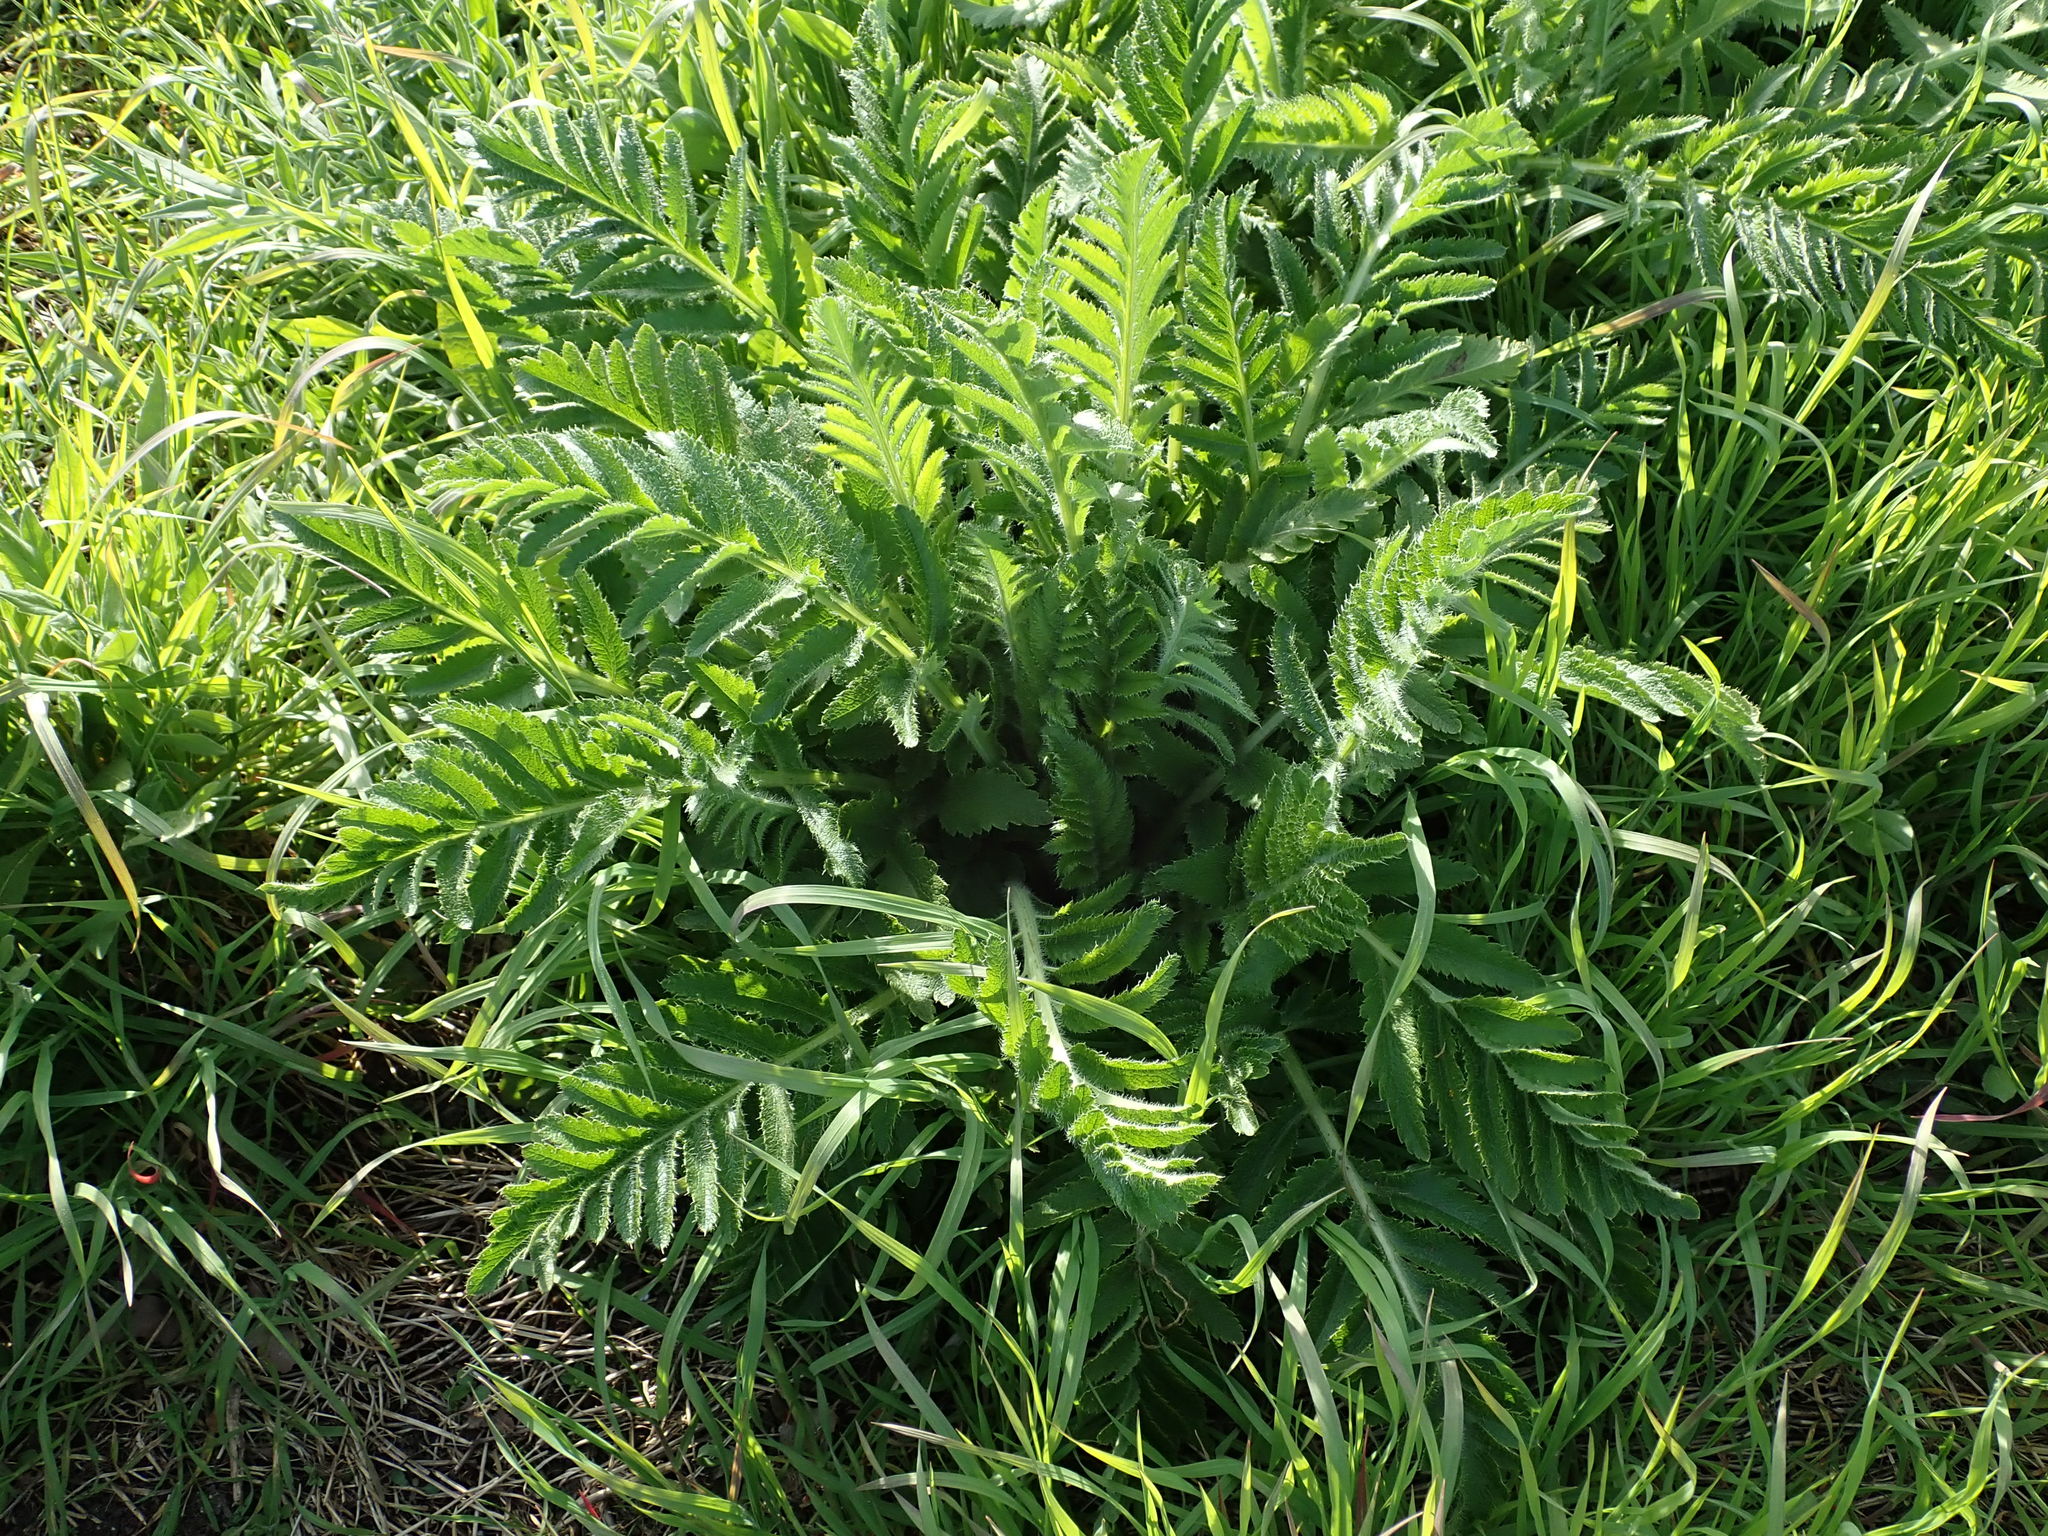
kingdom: Plantae
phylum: Tracheophyta
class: Magnoliopsida
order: Ranunculales
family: Papaveraceae
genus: Papaver
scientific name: Papaver orientale
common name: Oriental poppy
